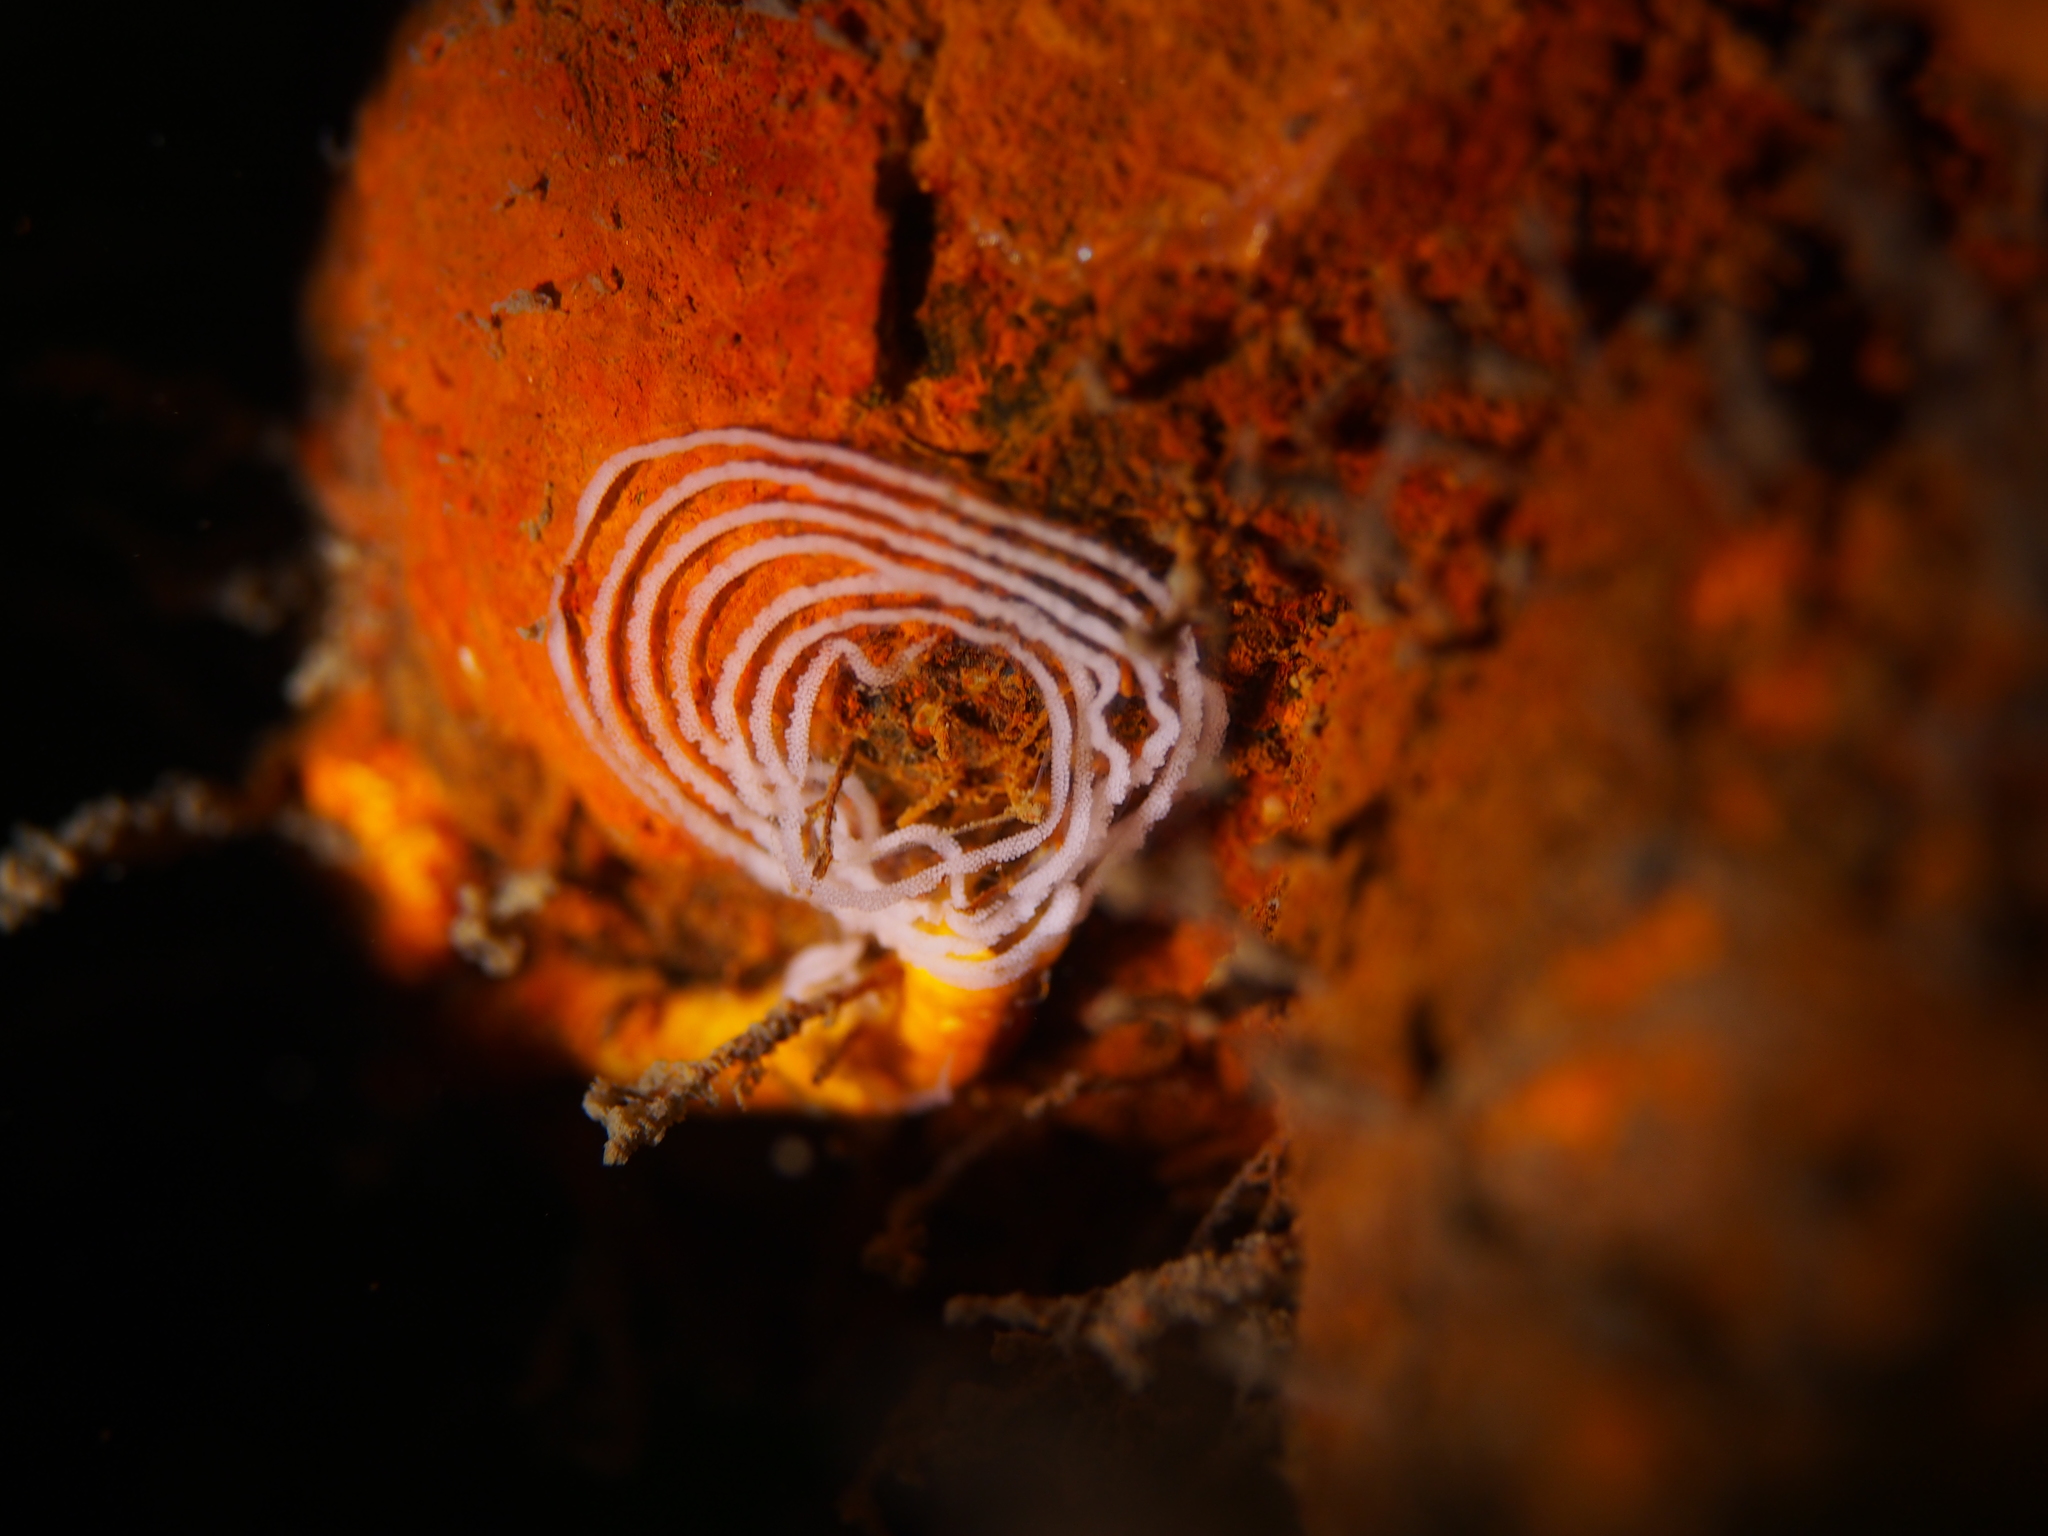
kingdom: Animalia
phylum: Mollusca
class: Gastropoda
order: Nudibranchia
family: Coryphellidae
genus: Coryphella
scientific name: Coryphella verrucosa
